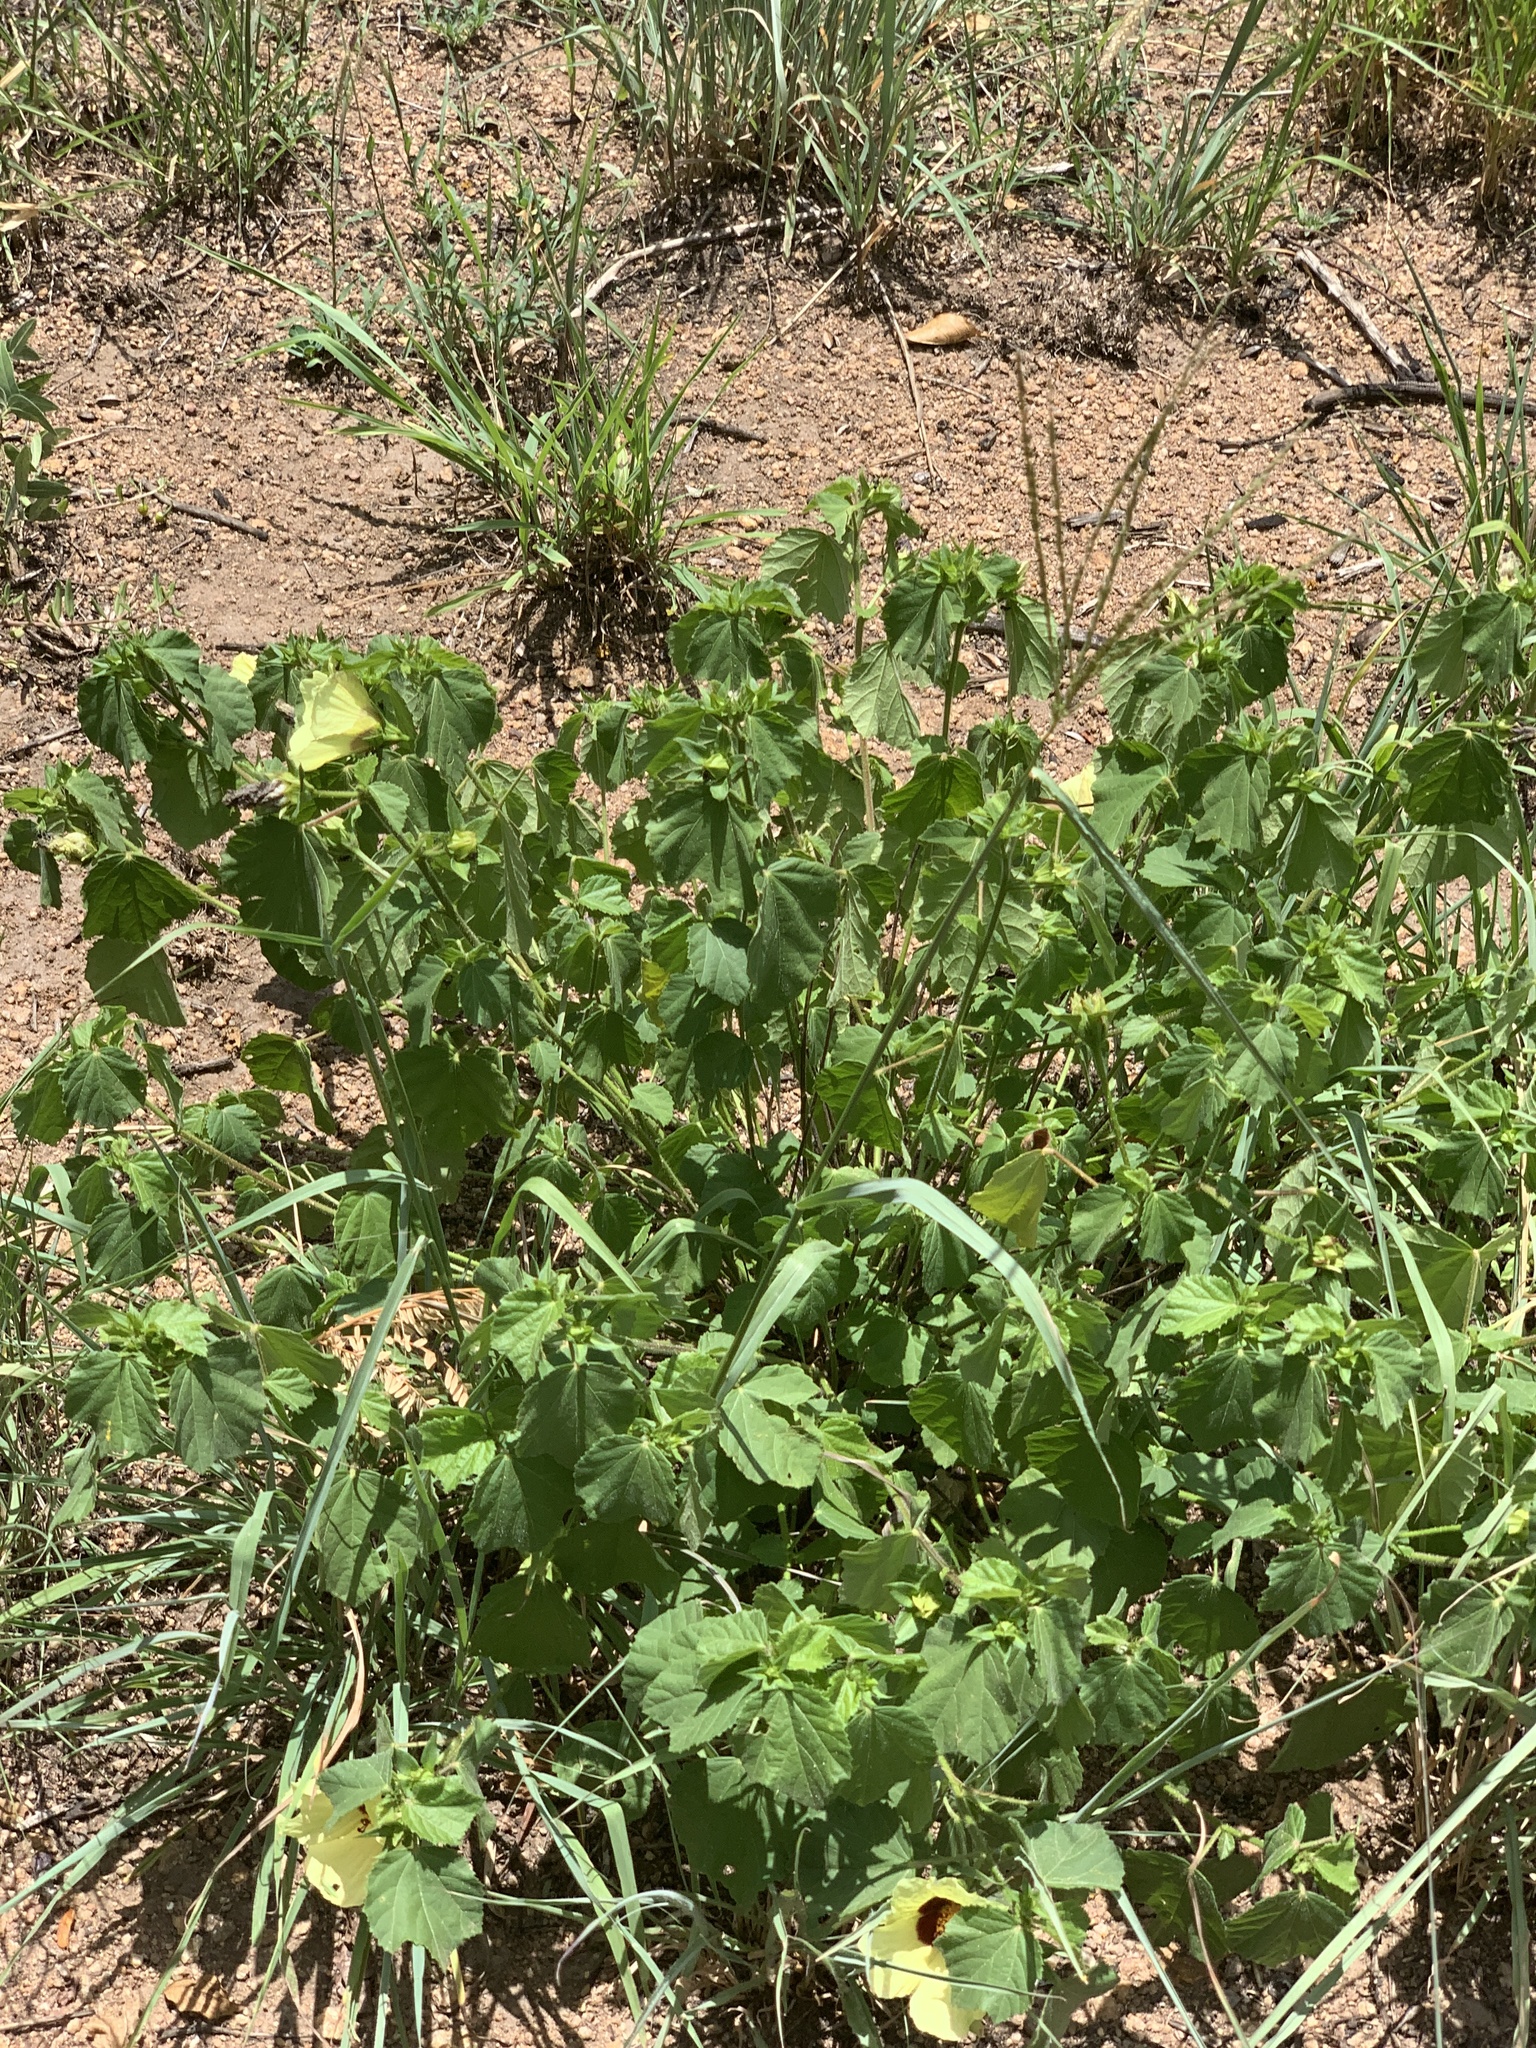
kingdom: Plantae
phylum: Tracheophyta
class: Magnoliopsida
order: Malvales
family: Malvaceae
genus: Hibiscus
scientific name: Hibiscus calyphyllus
